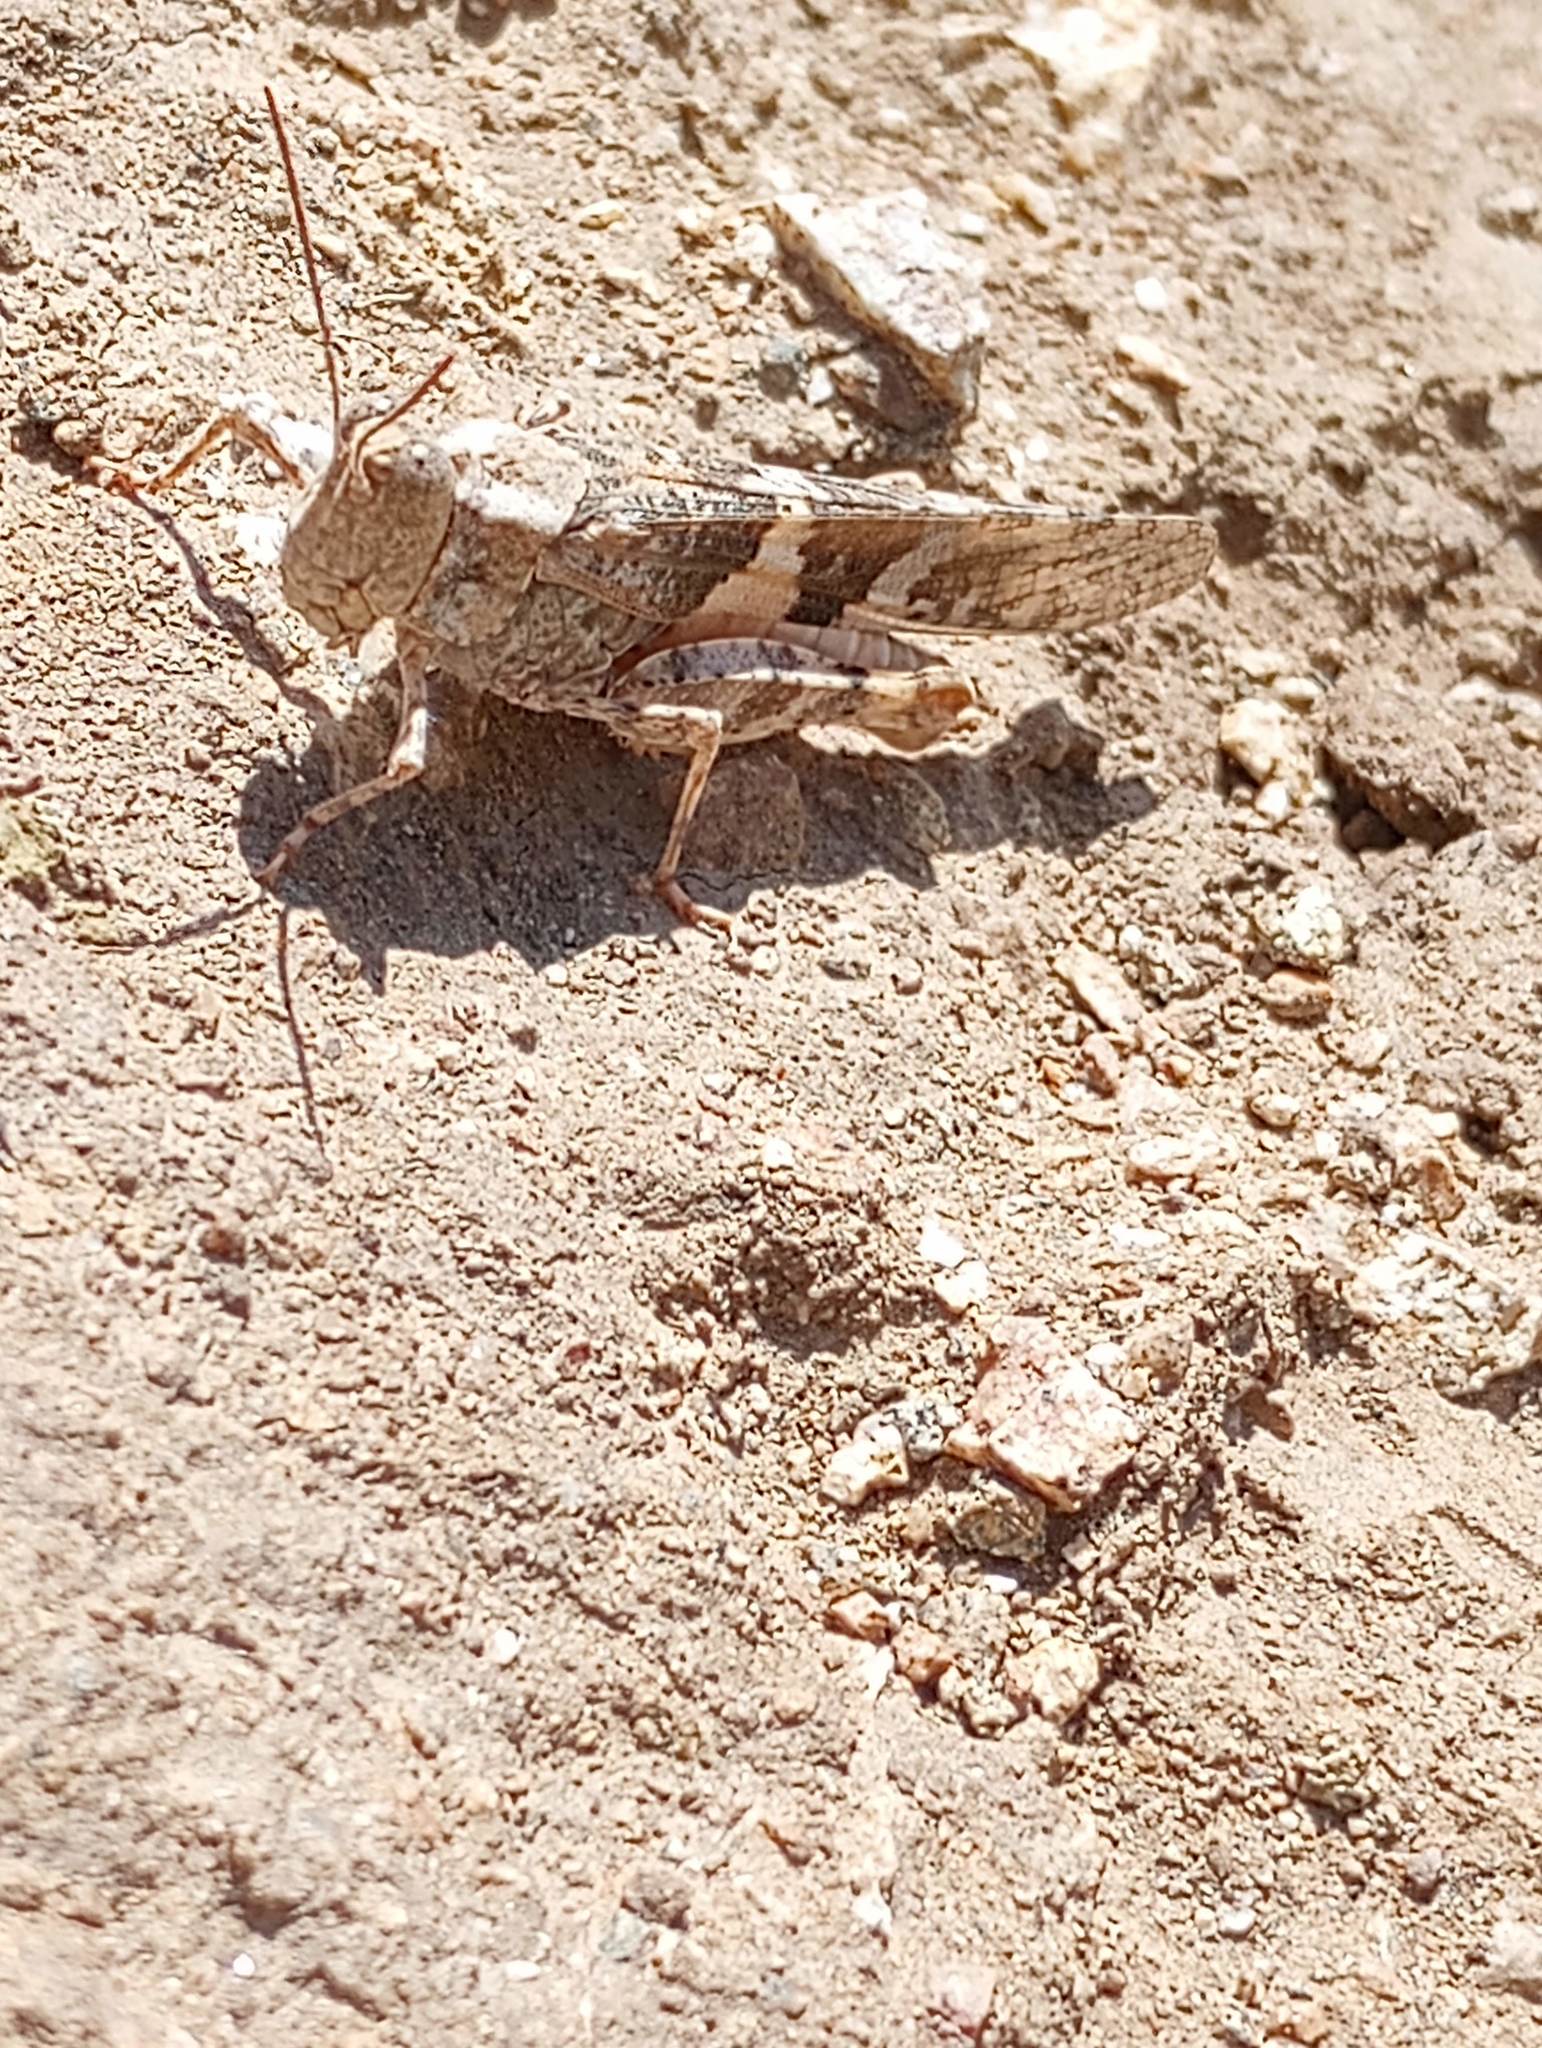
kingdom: Animalia
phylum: Arthropoda
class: Insecta
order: Orthoptera
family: Acrididae
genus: Trimerotropis
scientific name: Trimerotropis pallidipennis
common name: Pallid-winged grasshopper
